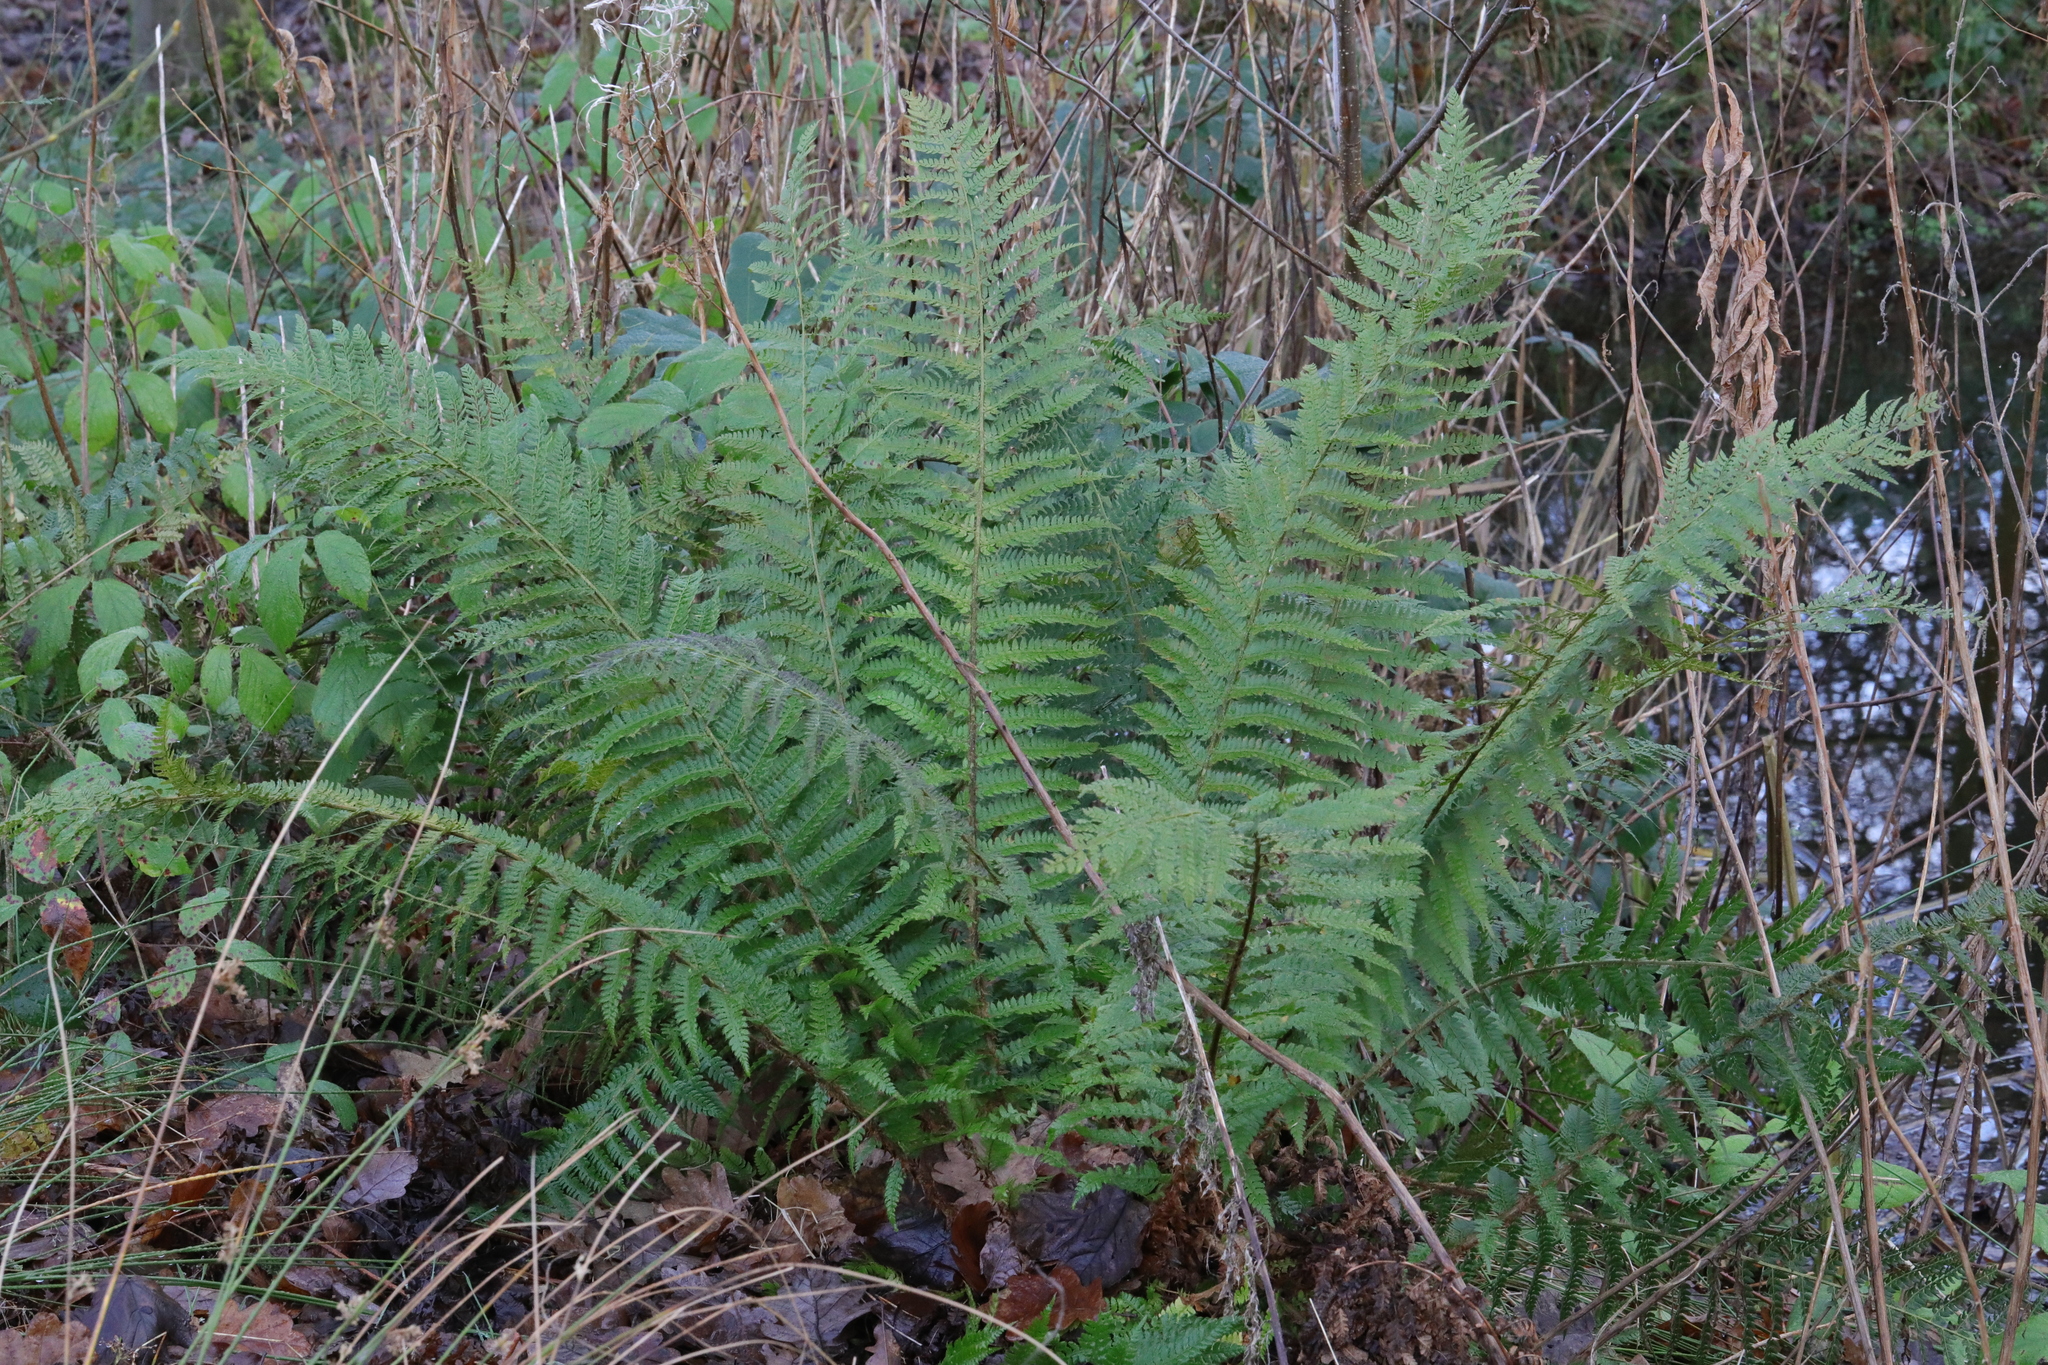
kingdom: Plantae
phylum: Tracheophyta
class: Polypodiopsida
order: Polypodiales
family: Dryopteridaceae
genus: Polystichum
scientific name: Polystichum setiferum
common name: Soft shield-fern
